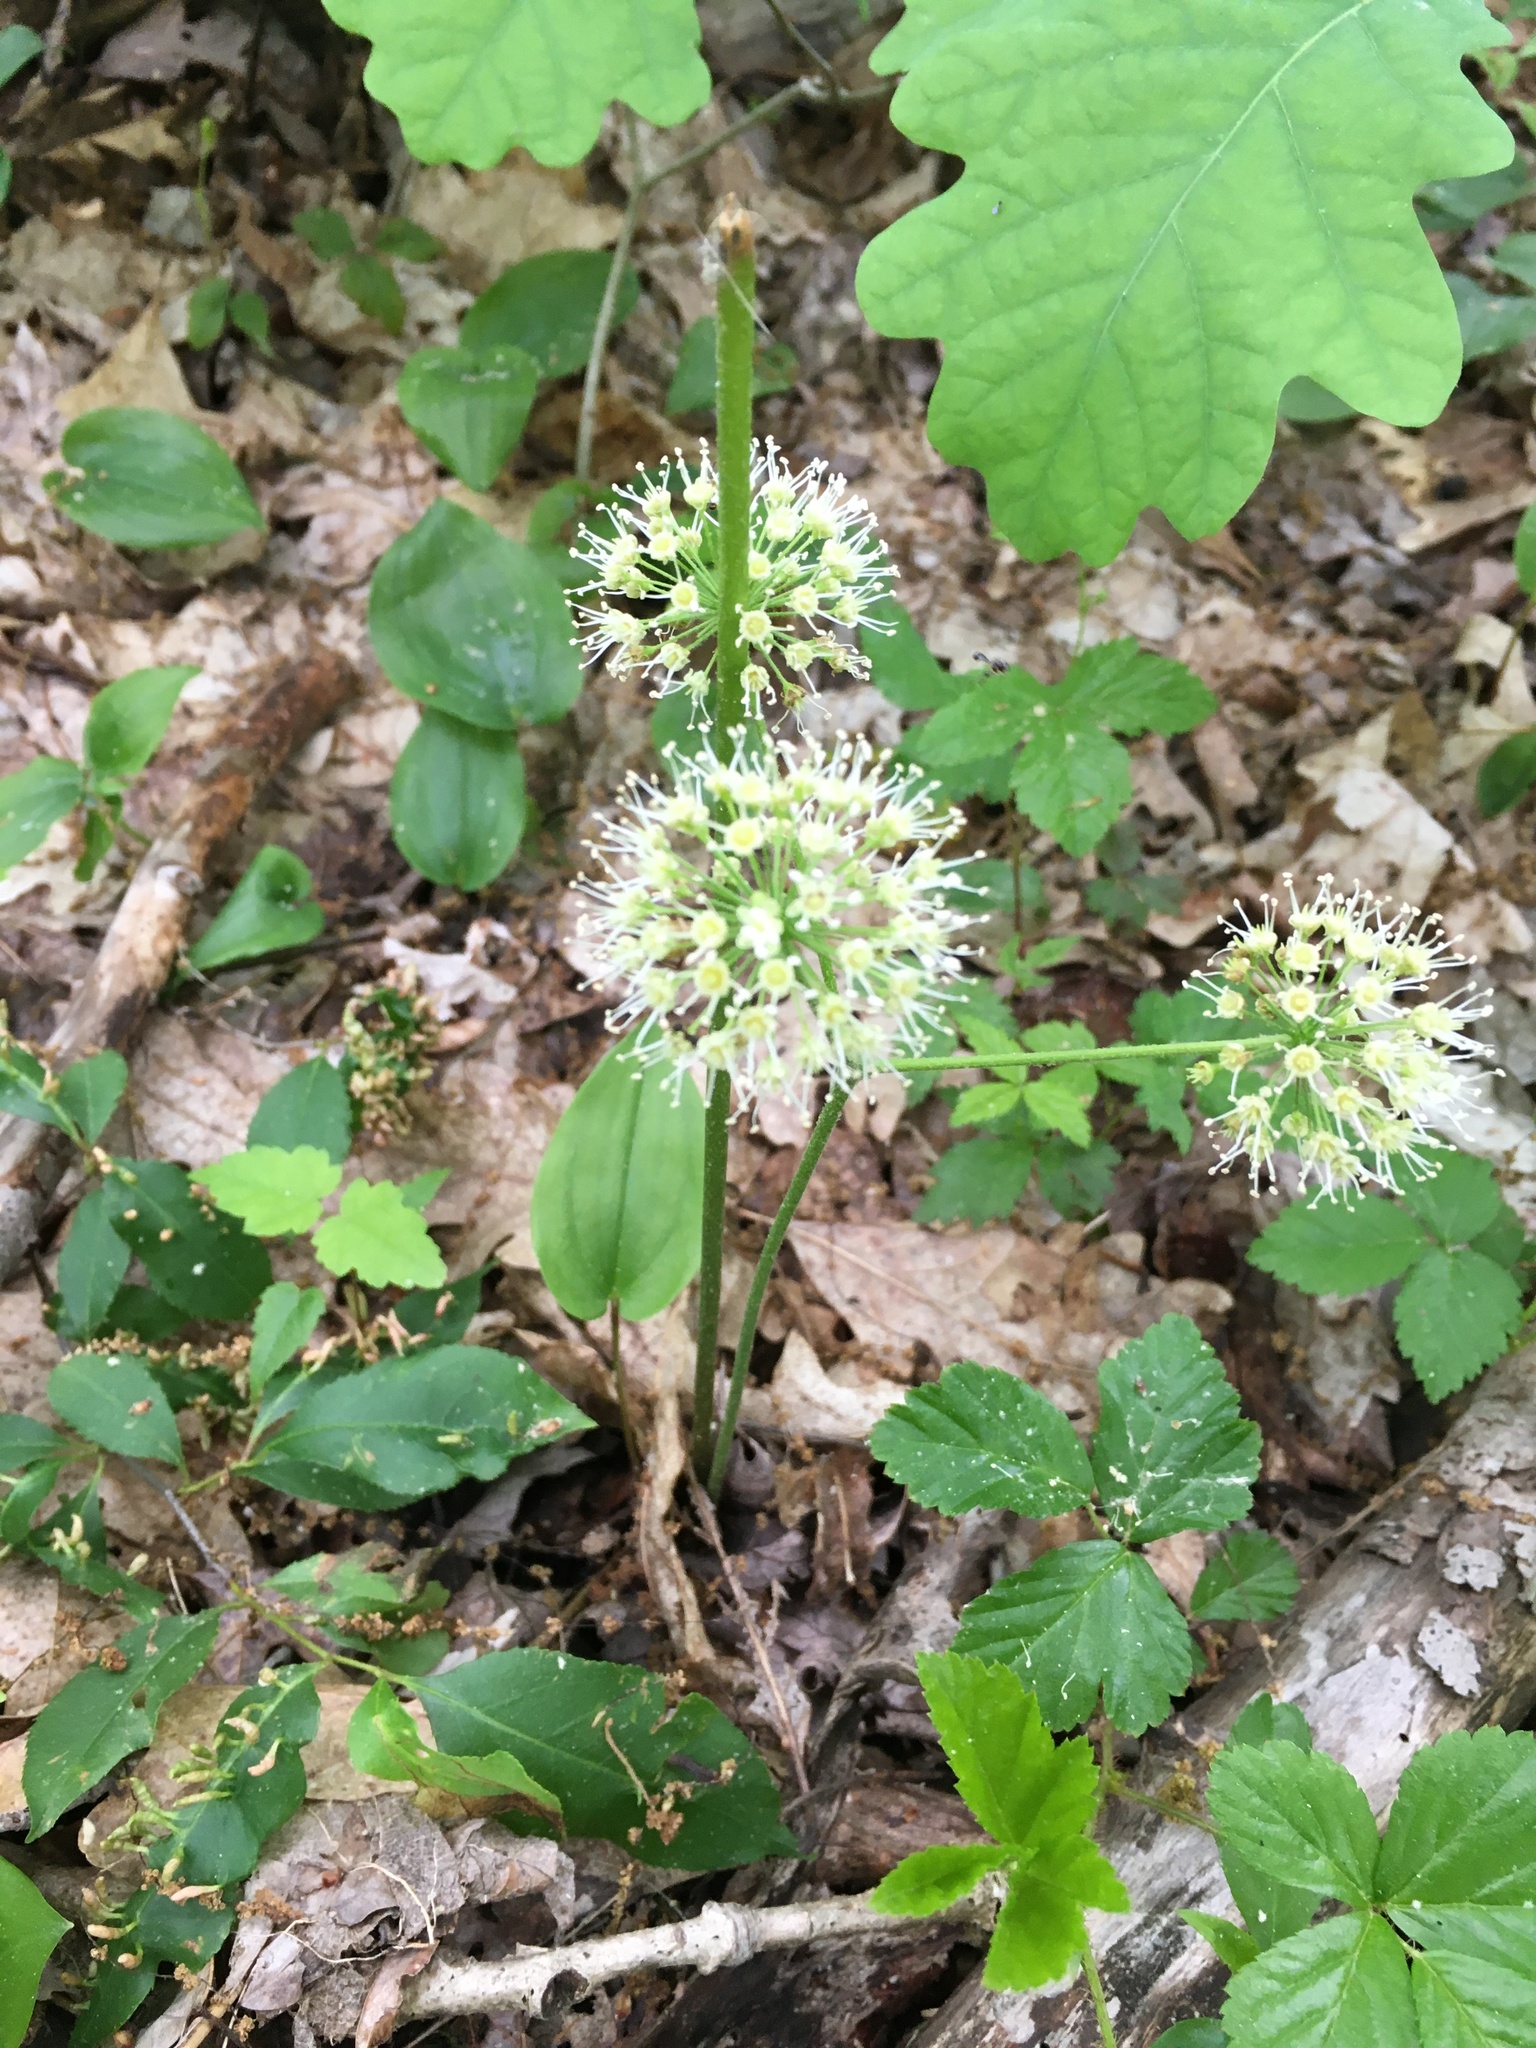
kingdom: Plantae
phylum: Tracheophyta
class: Magnoliopsida
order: Apiales
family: Araliaceae
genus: Aralia
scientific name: Aralia nudicaulis
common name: Wild sarsaparilla
